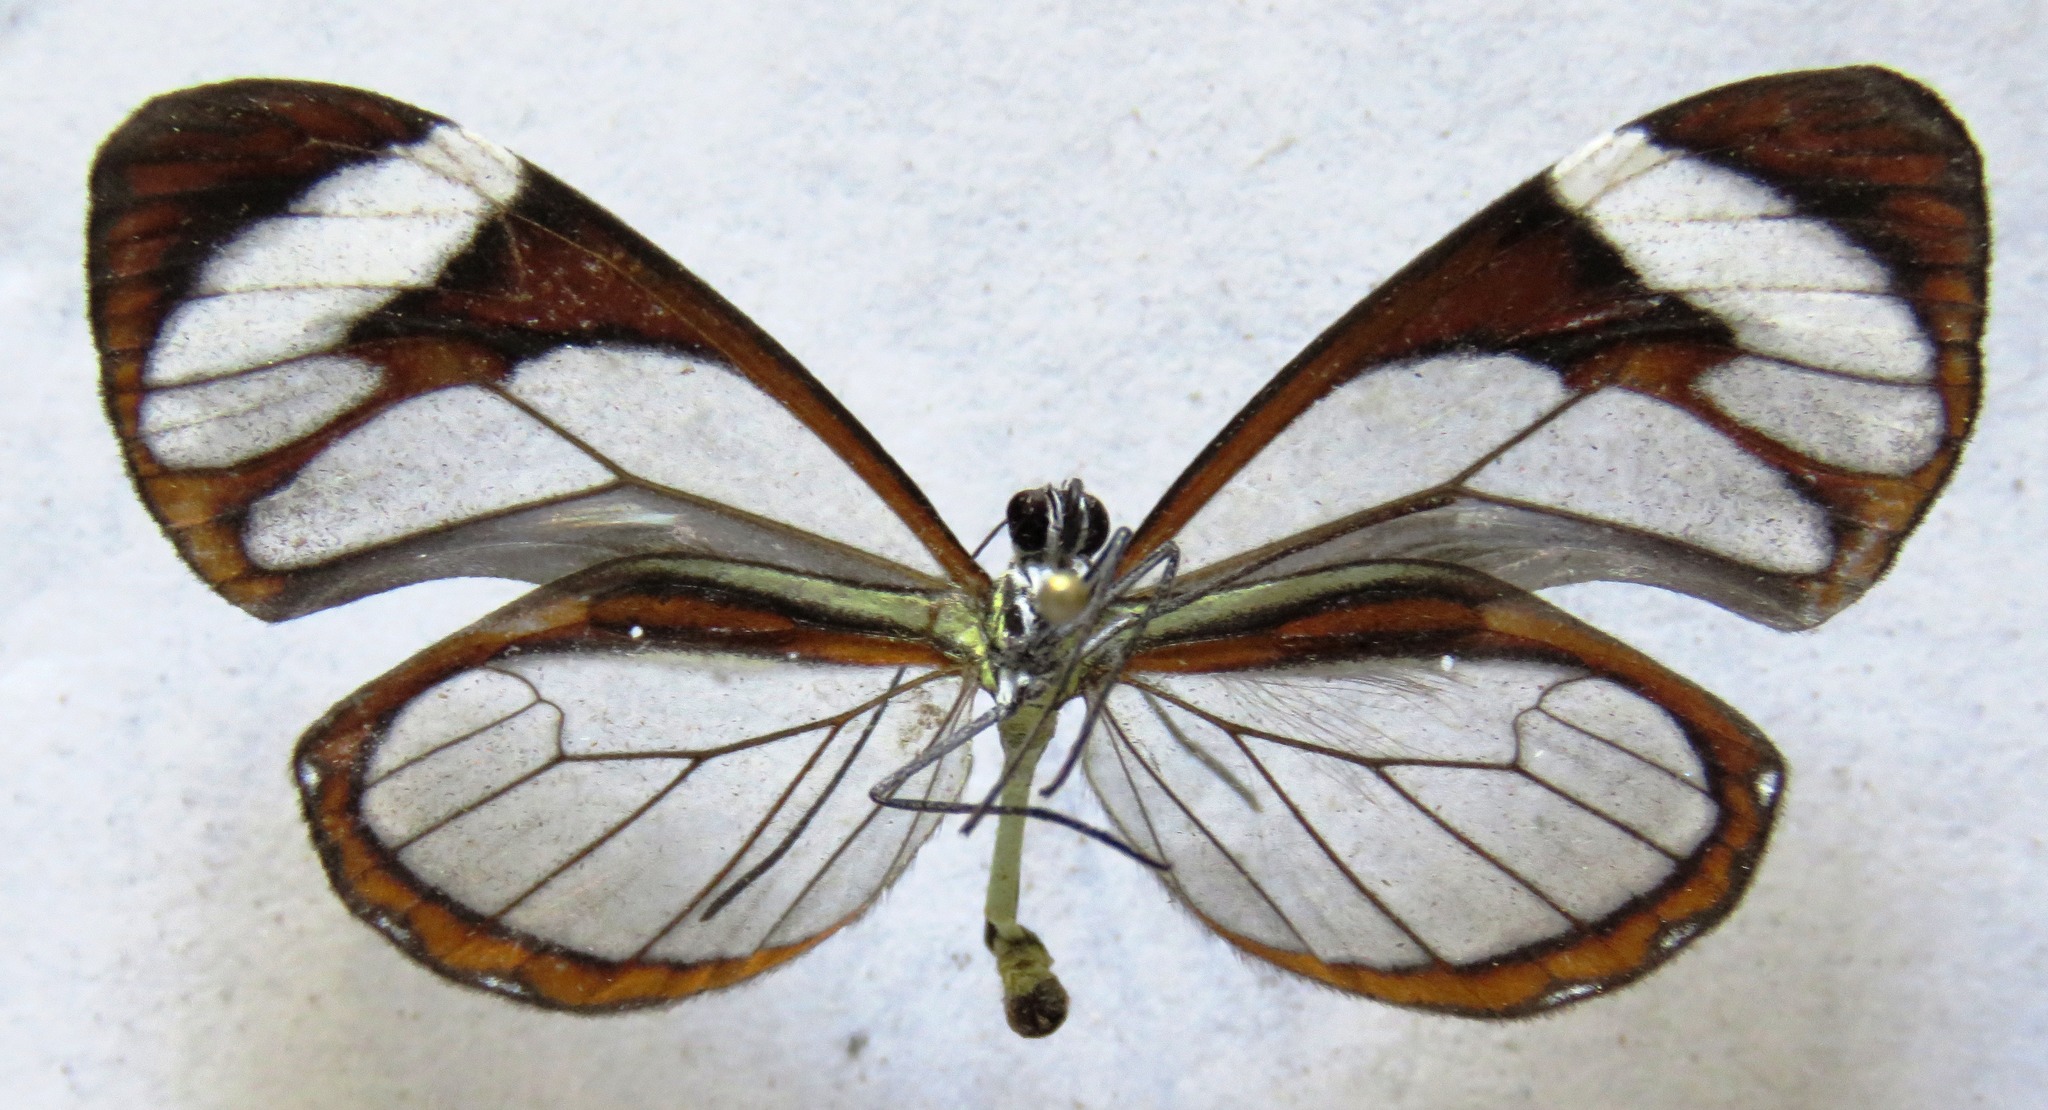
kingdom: Animalia
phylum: Arthropoda
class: Insecta
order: Lepidoptera
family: Nymphalidae
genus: Ithomia
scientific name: Ithomia patilla
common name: Patilla clearwing
